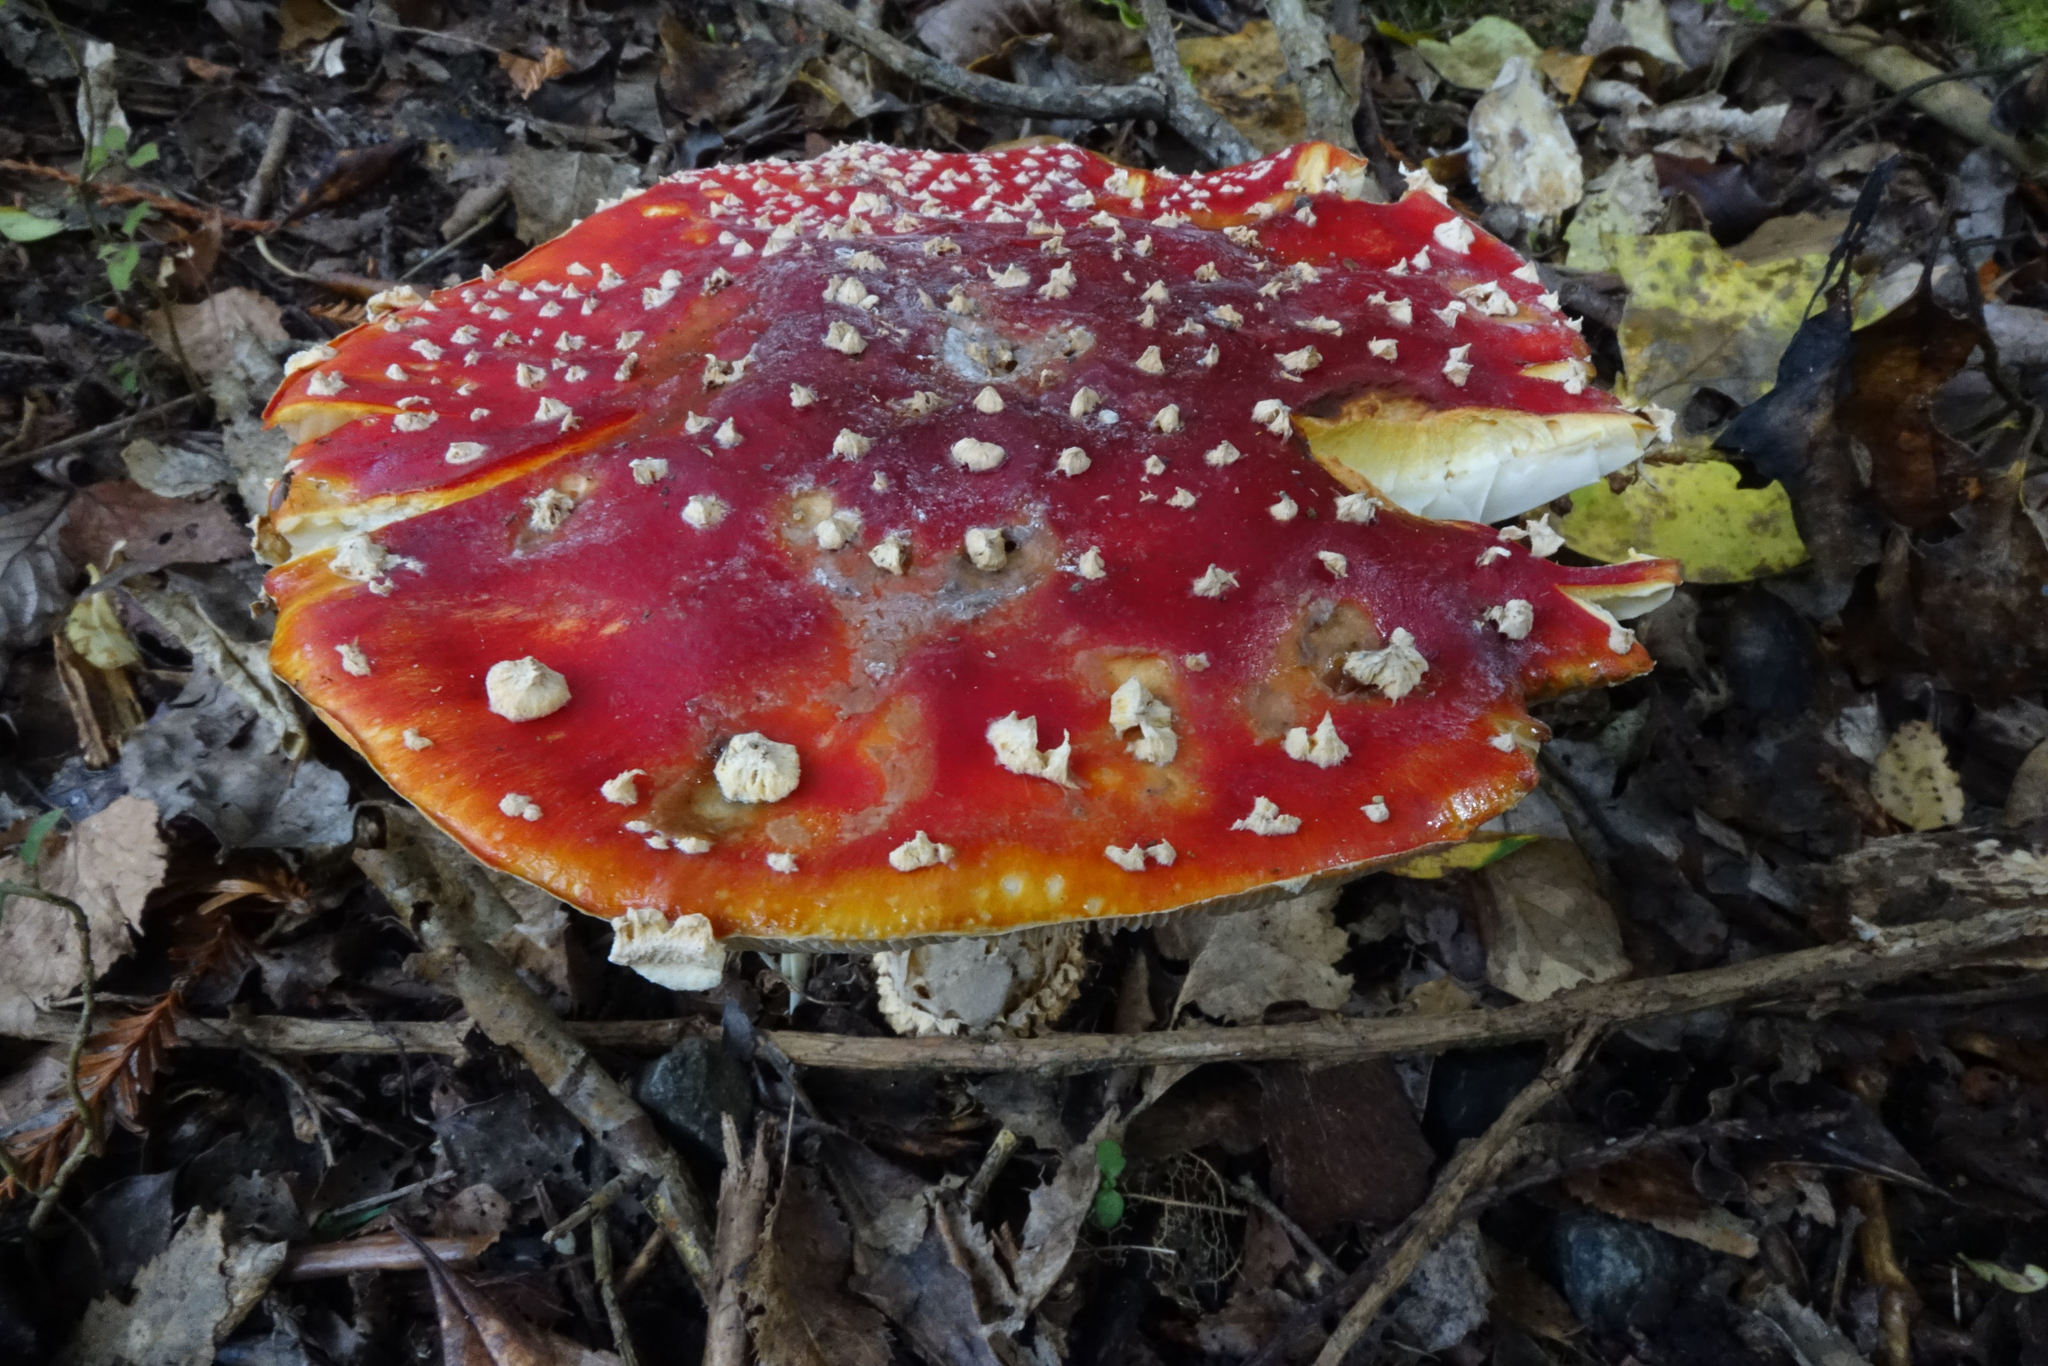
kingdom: Fungi
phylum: Basidiomycota
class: Agaricomycetes
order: Agaricales
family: Amanitaceae
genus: Amanita
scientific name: Amanita muscaria
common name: Fly agaric
